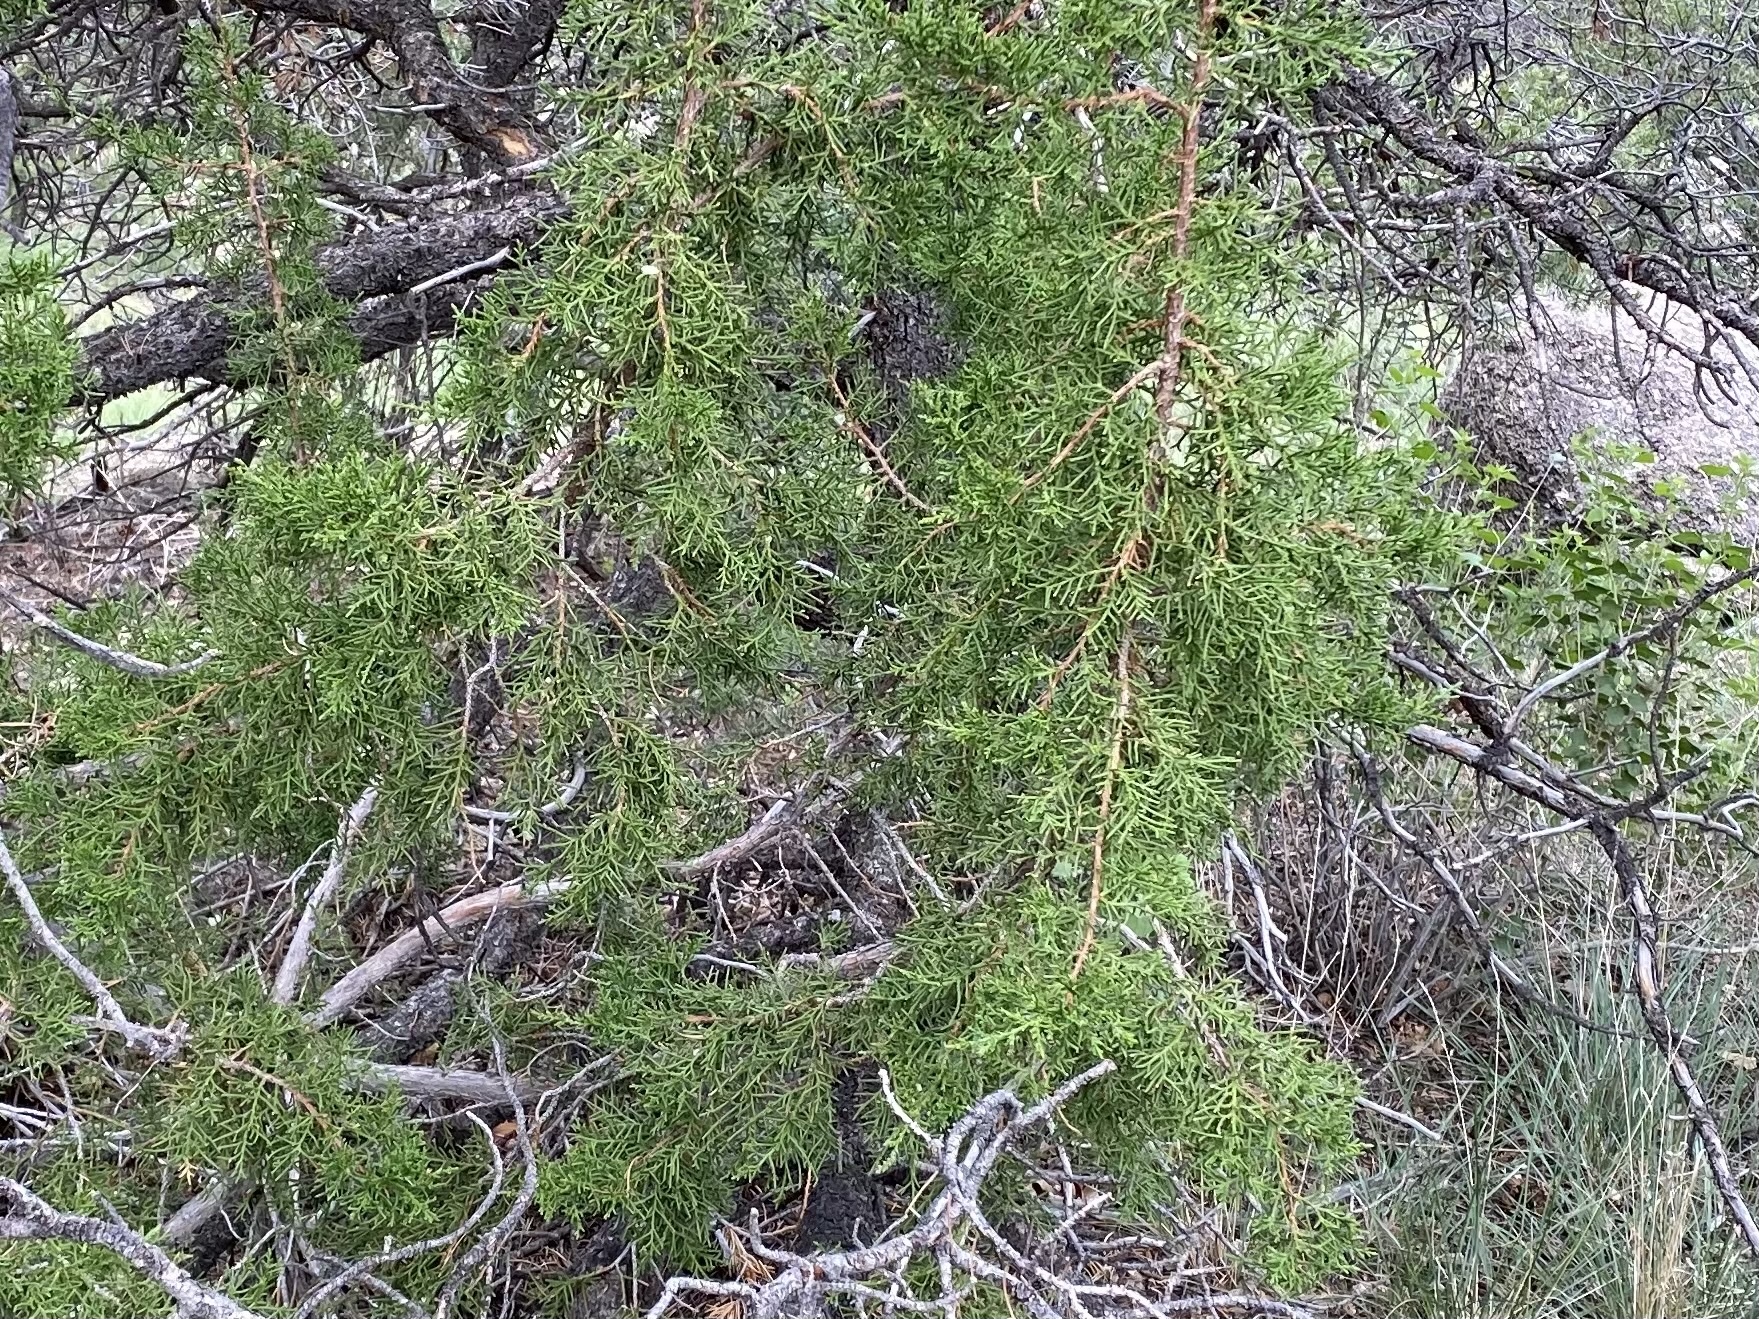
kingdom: Plantae
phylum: Tracheophyta
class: Pinopsida
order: Pinales
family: Cupressaceae
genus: Juniperus
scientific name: Juniperus monosperma
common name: One-seed juniper
